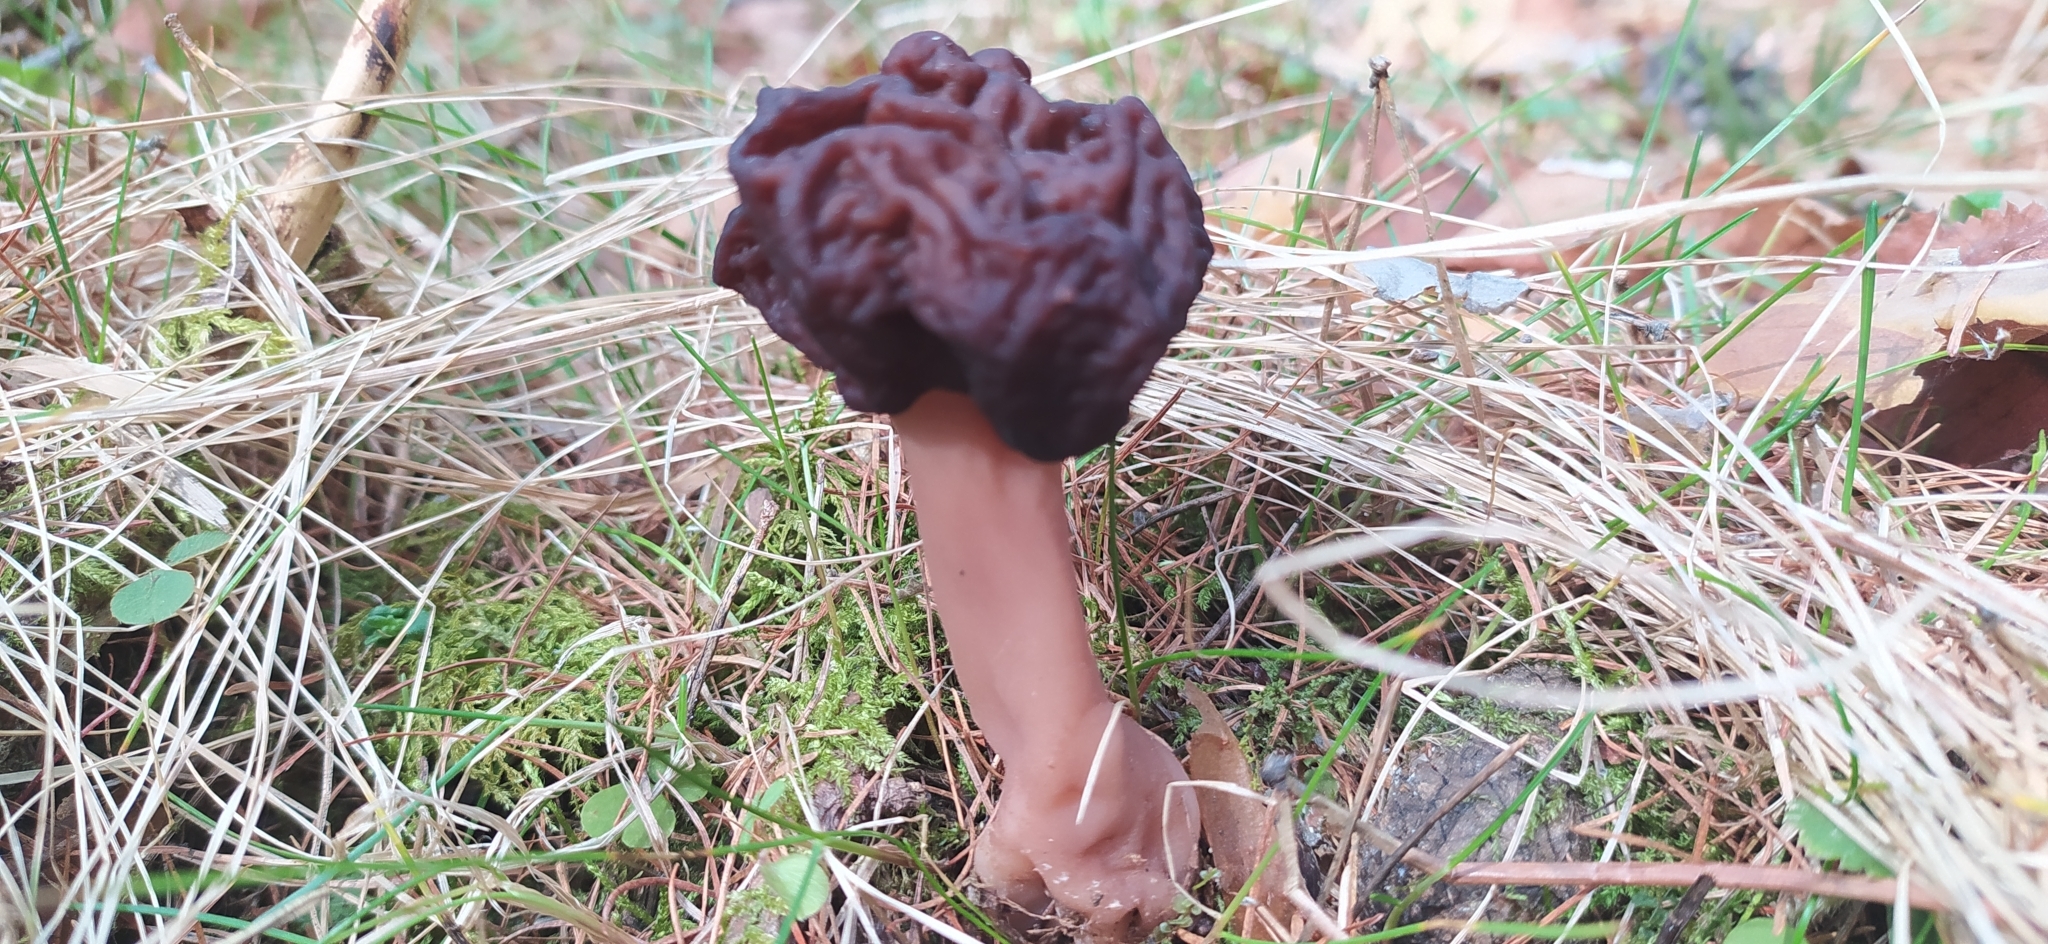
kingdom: Fungi
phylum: Ascomycota
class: Pezizomycetes
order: Pezizales
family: Discinaceae
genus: Gyromitra
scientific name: Gyromitra esculenta
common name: False morel
